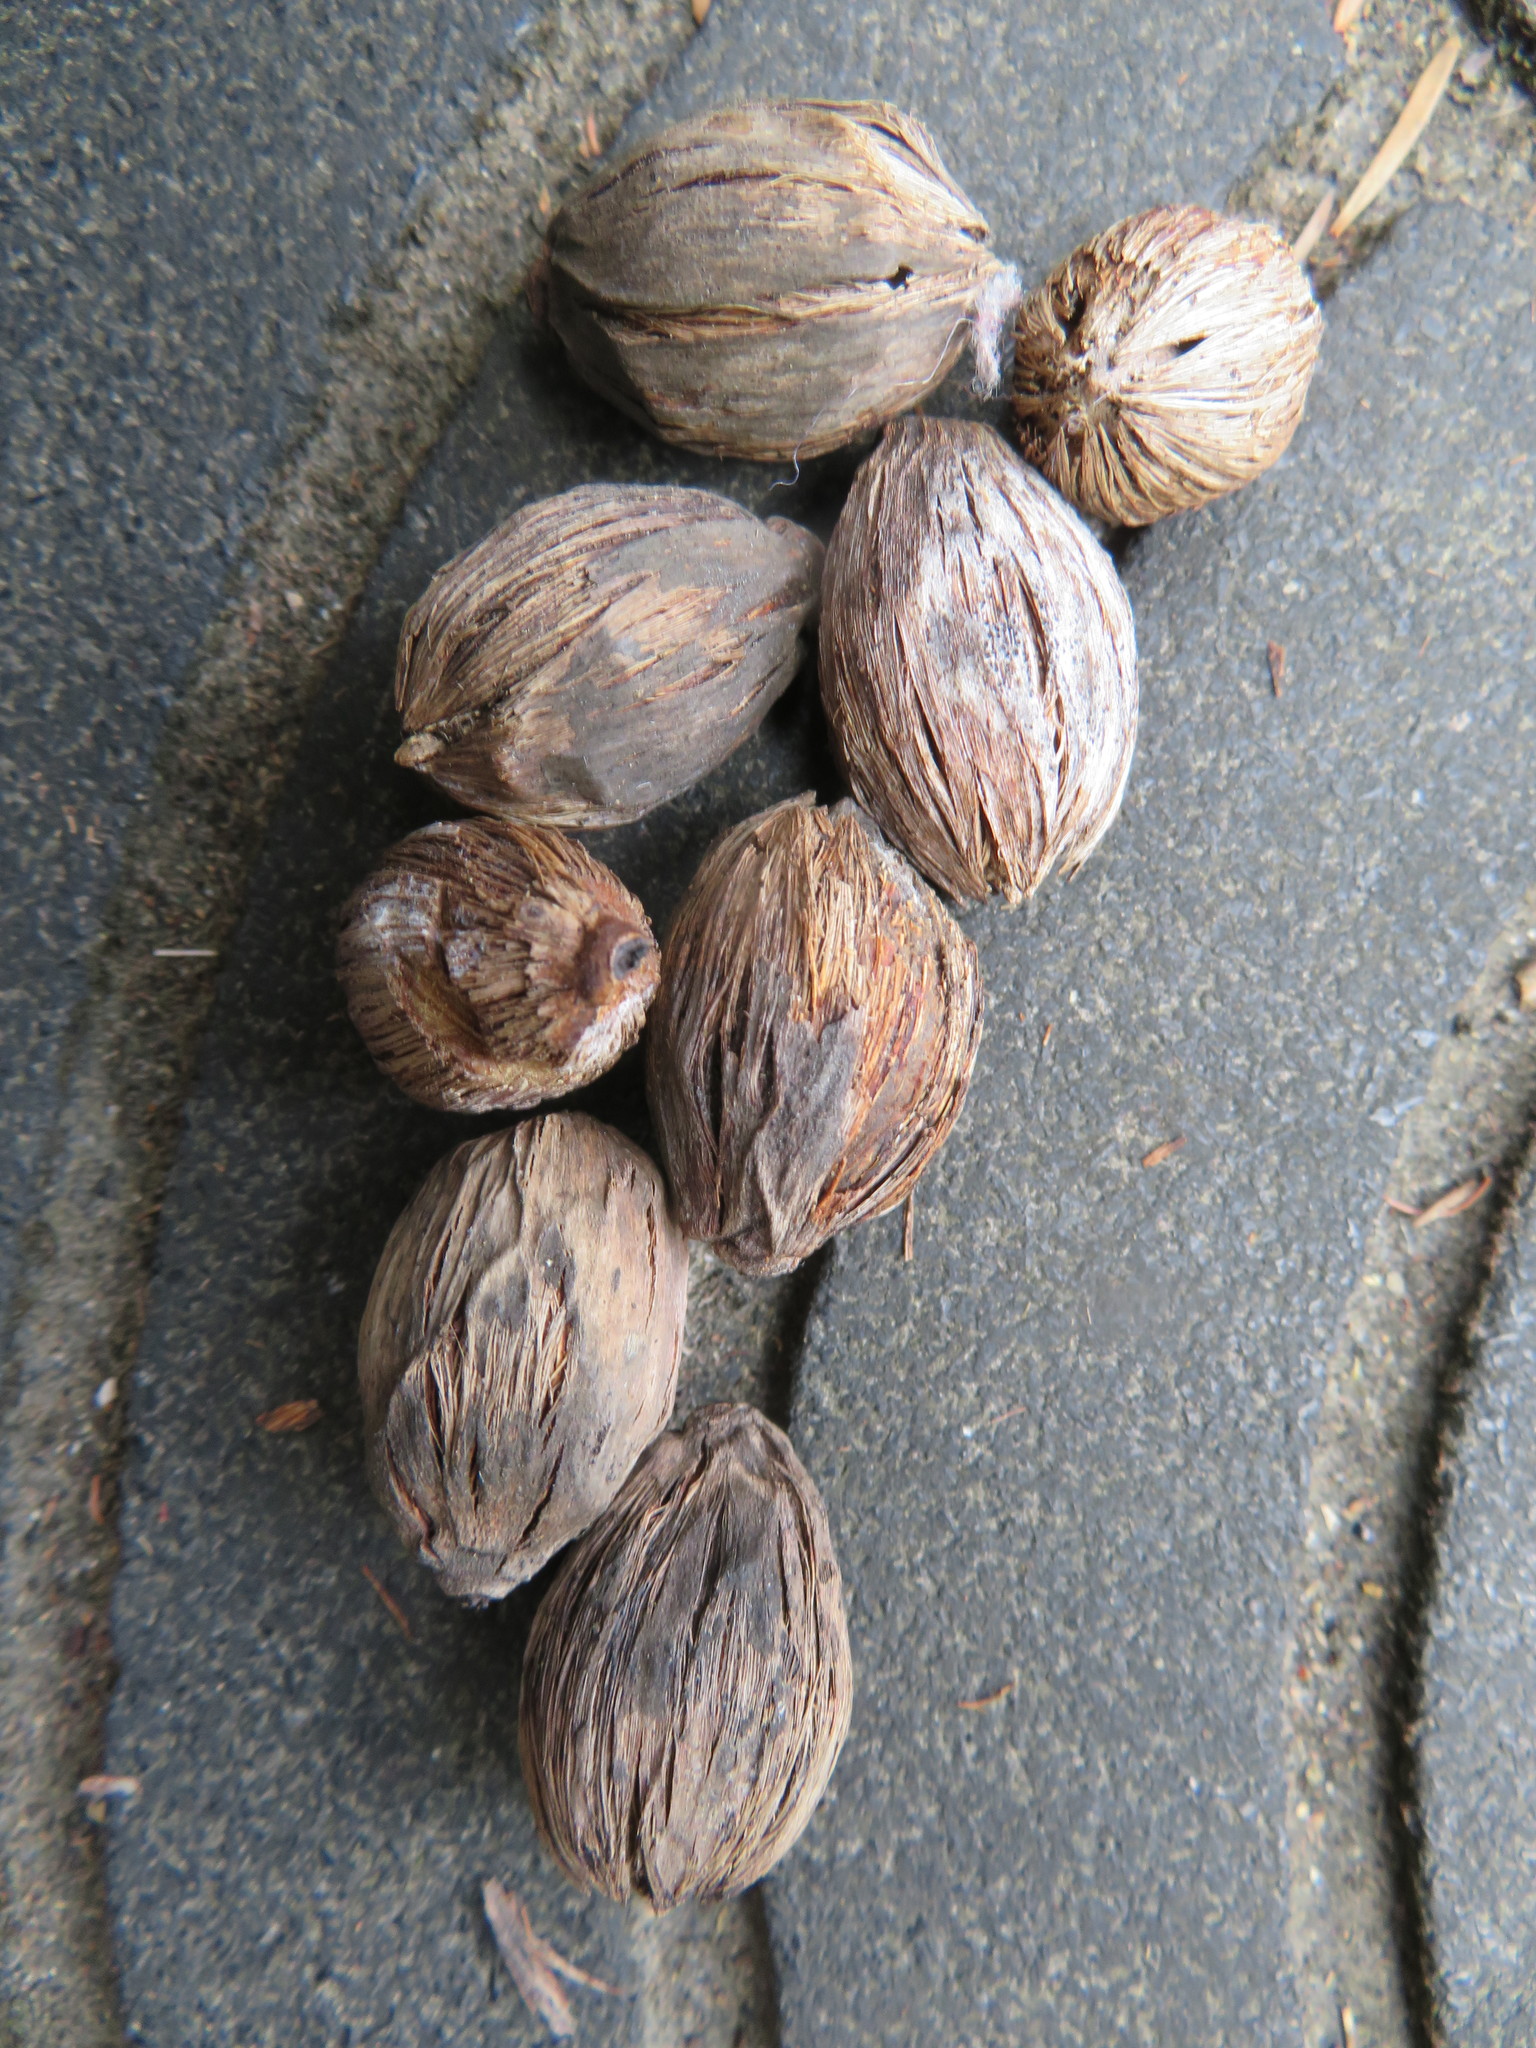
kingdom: Plantae
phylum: Tracheophyta
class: Liliopsida
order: Arecales
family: Arecaceae
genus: Syagrus
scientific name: Syagrus romanzoffiana
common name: Queen palm
